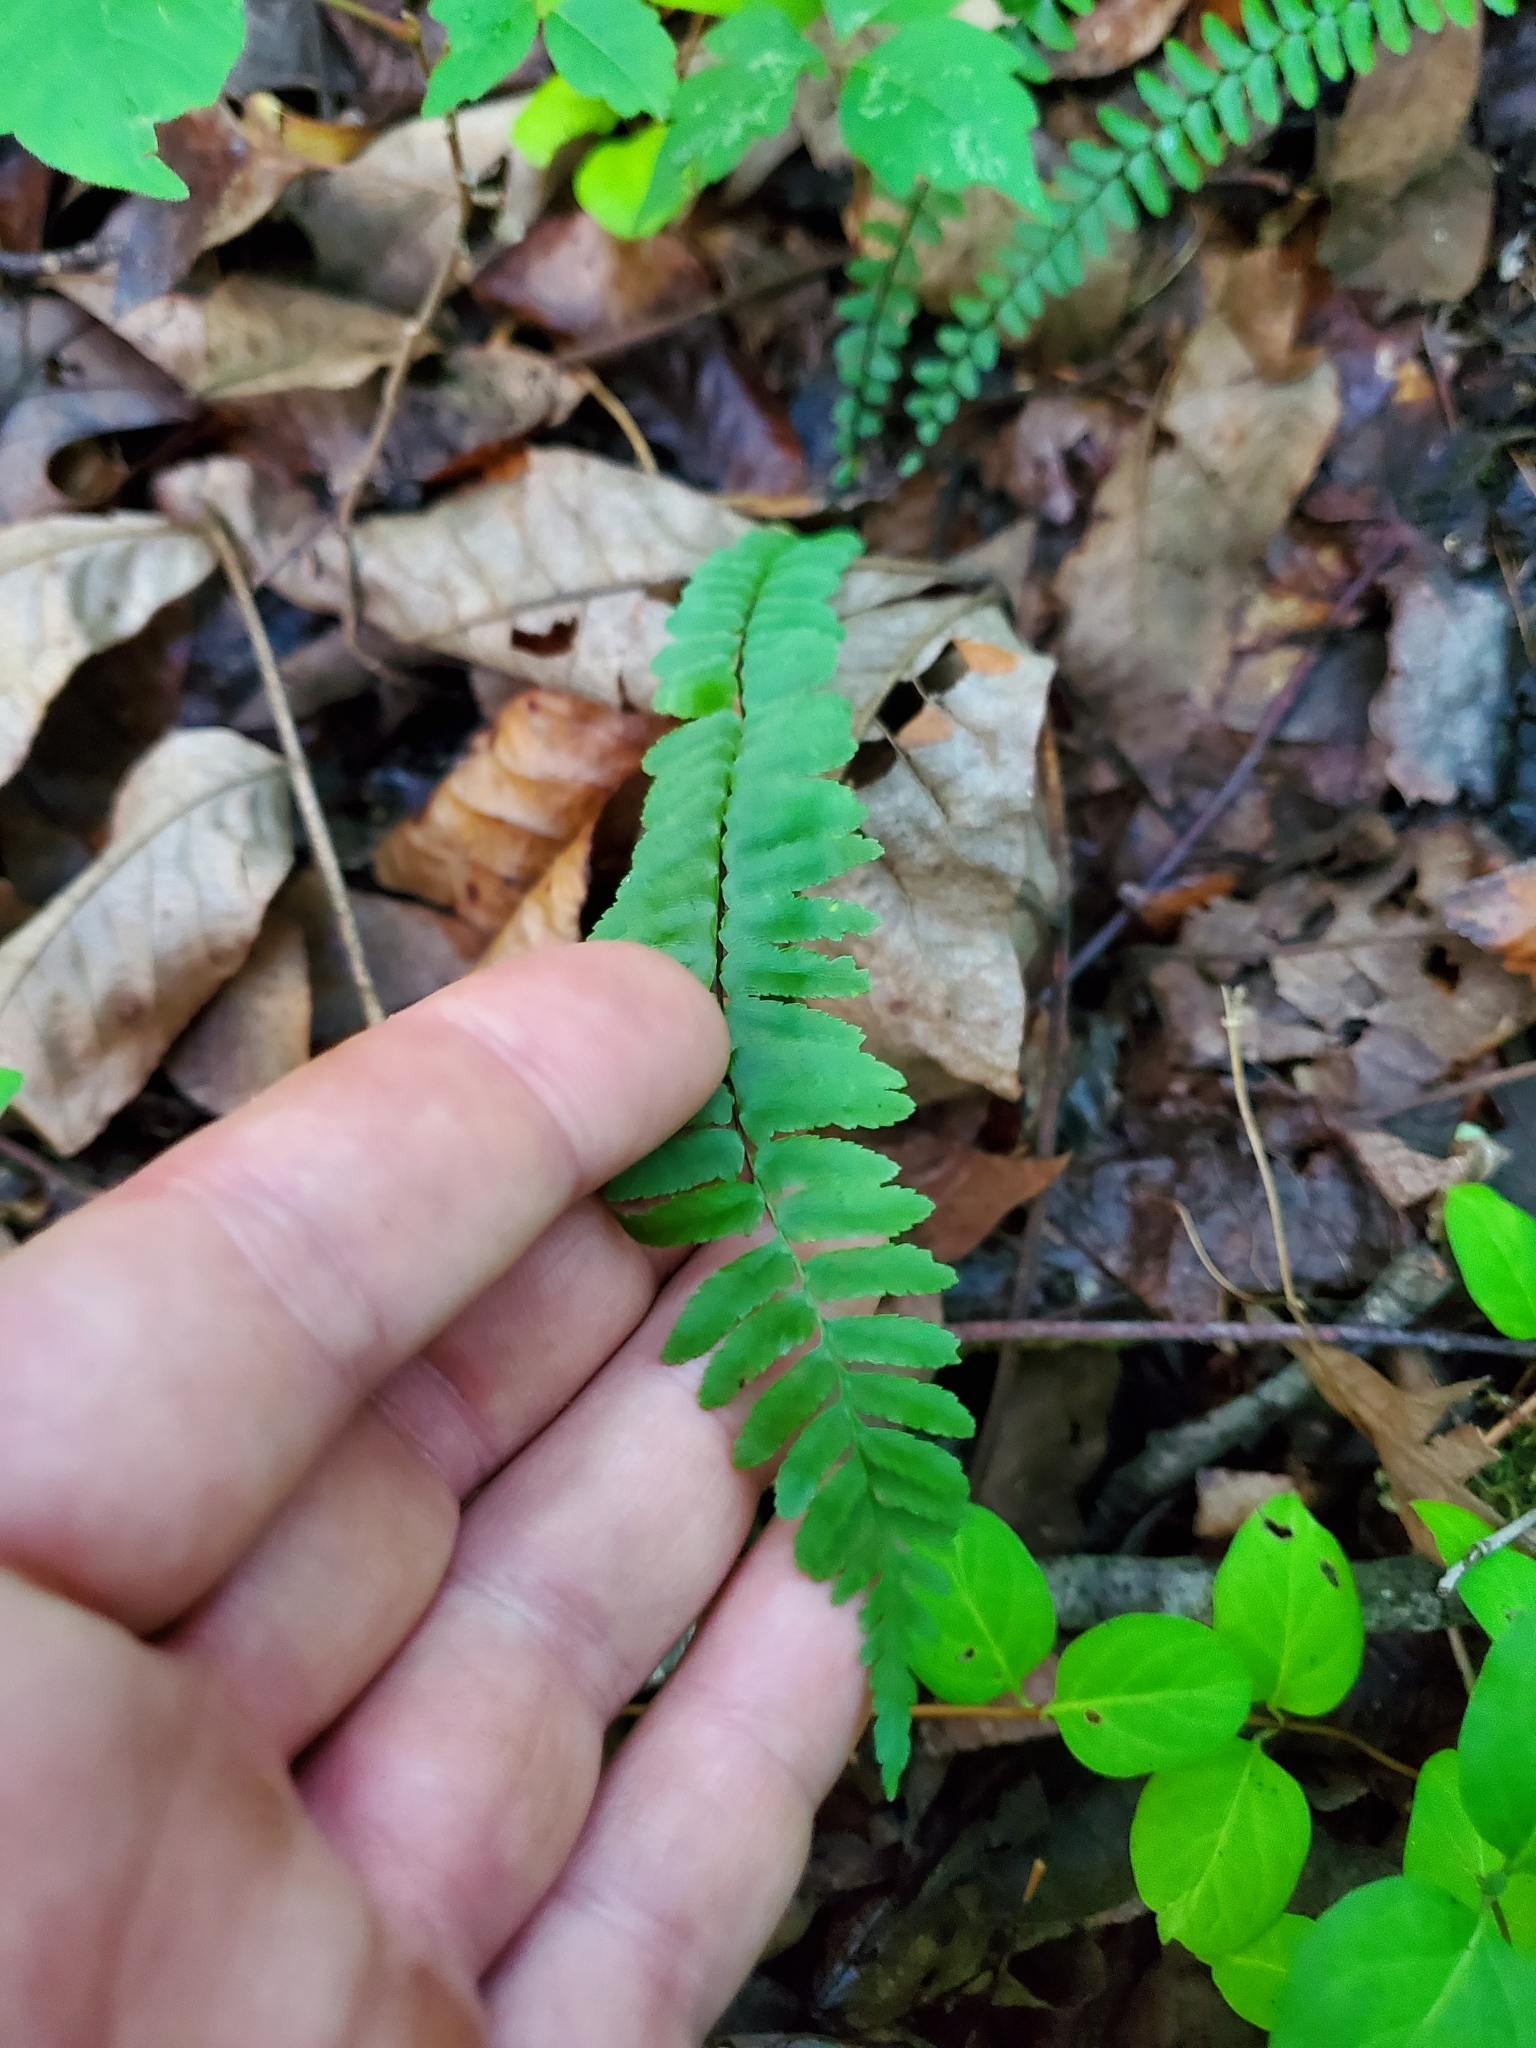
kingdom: Plantae
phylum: Tracheophyta
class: Polypodiopsida
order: Polypodiales
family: Aspleniaceae
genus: Asplenium
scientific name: Asplenium platyneuron
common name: Ebony spleenwort
